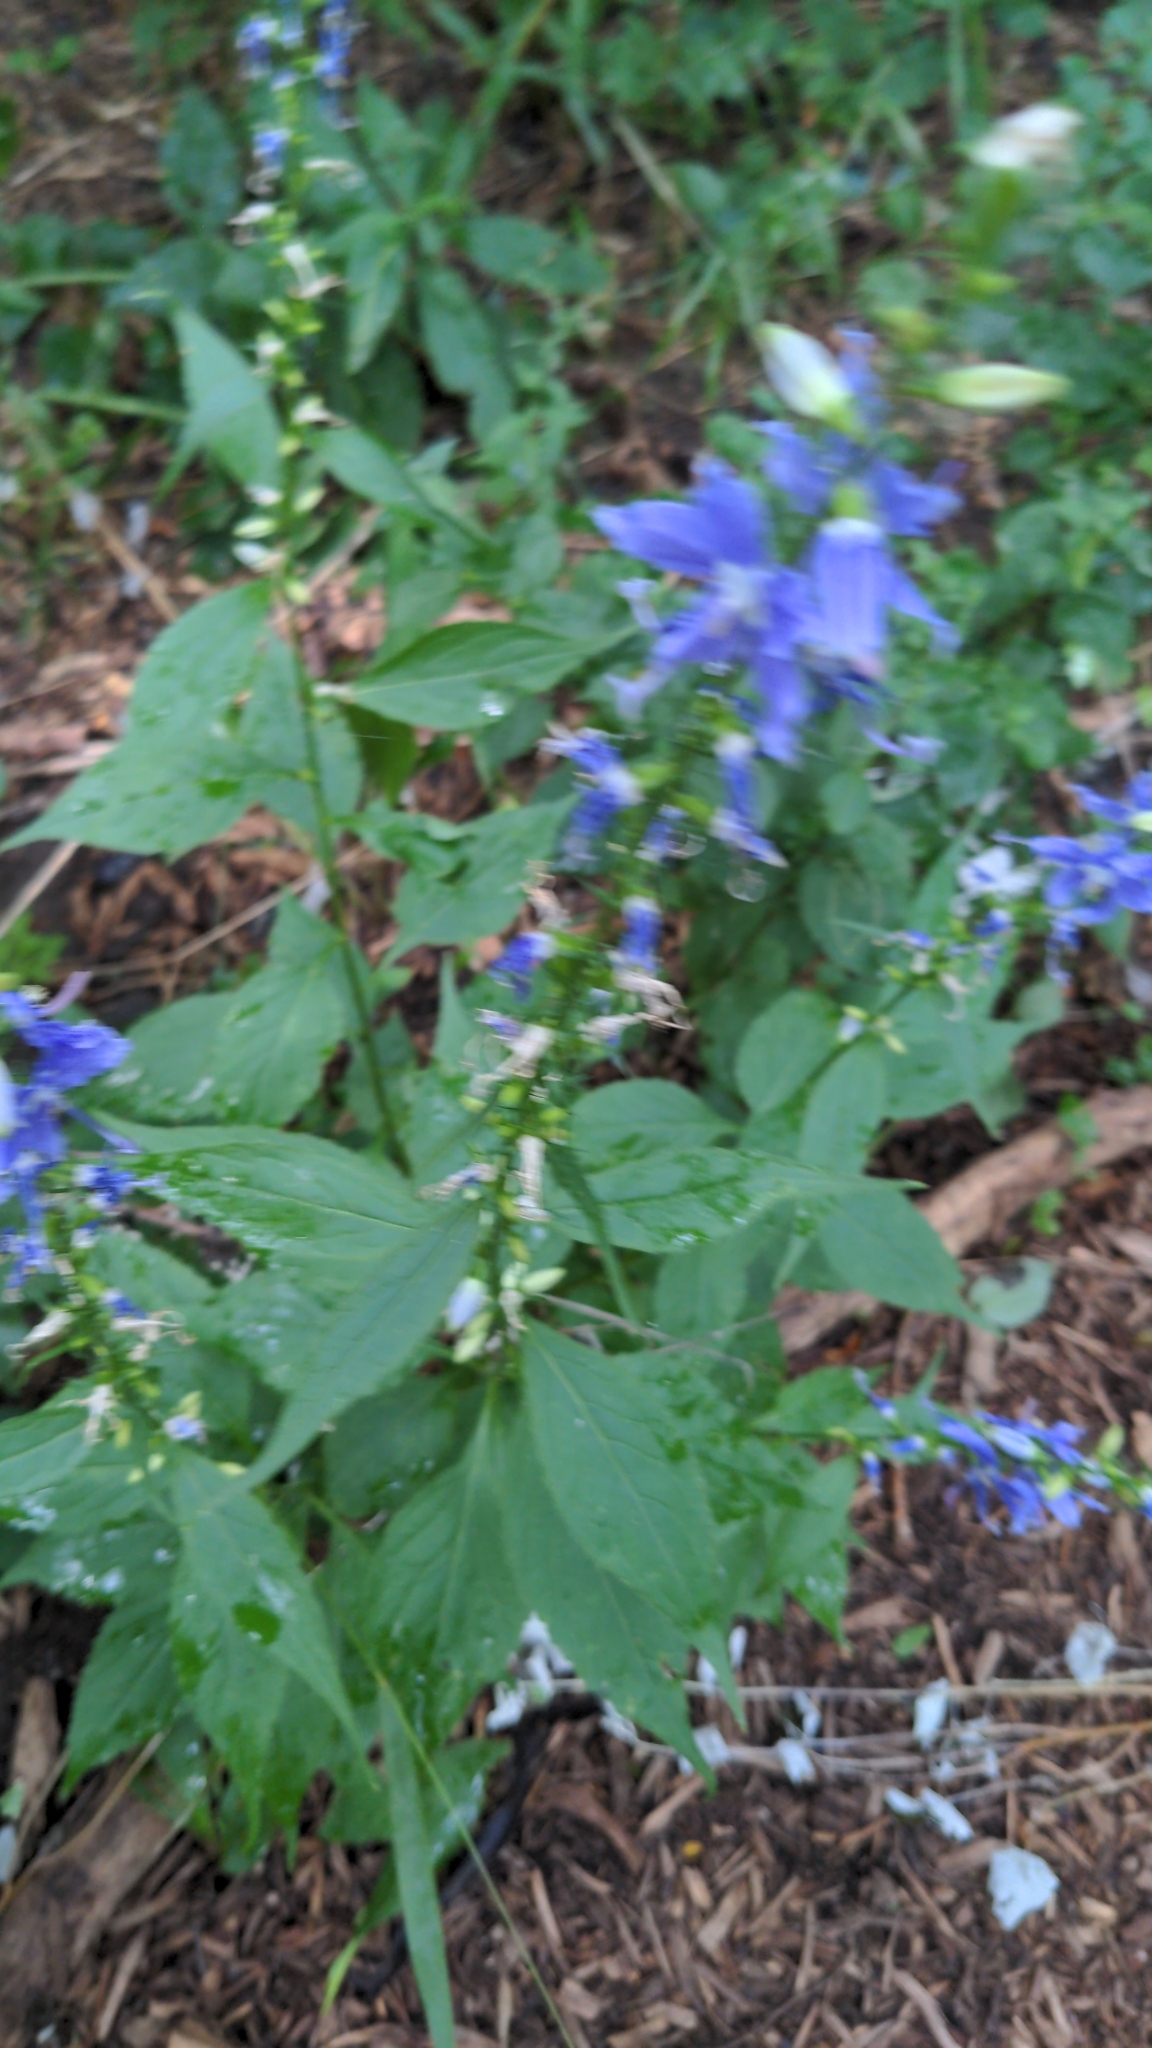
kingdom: Plantae
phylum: Tracheophyta
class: Magnoliopsida
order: Asterales
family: Campanulaceae
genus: Campanulastrum
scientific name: Campanulastrum americanum
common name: American bellflower
